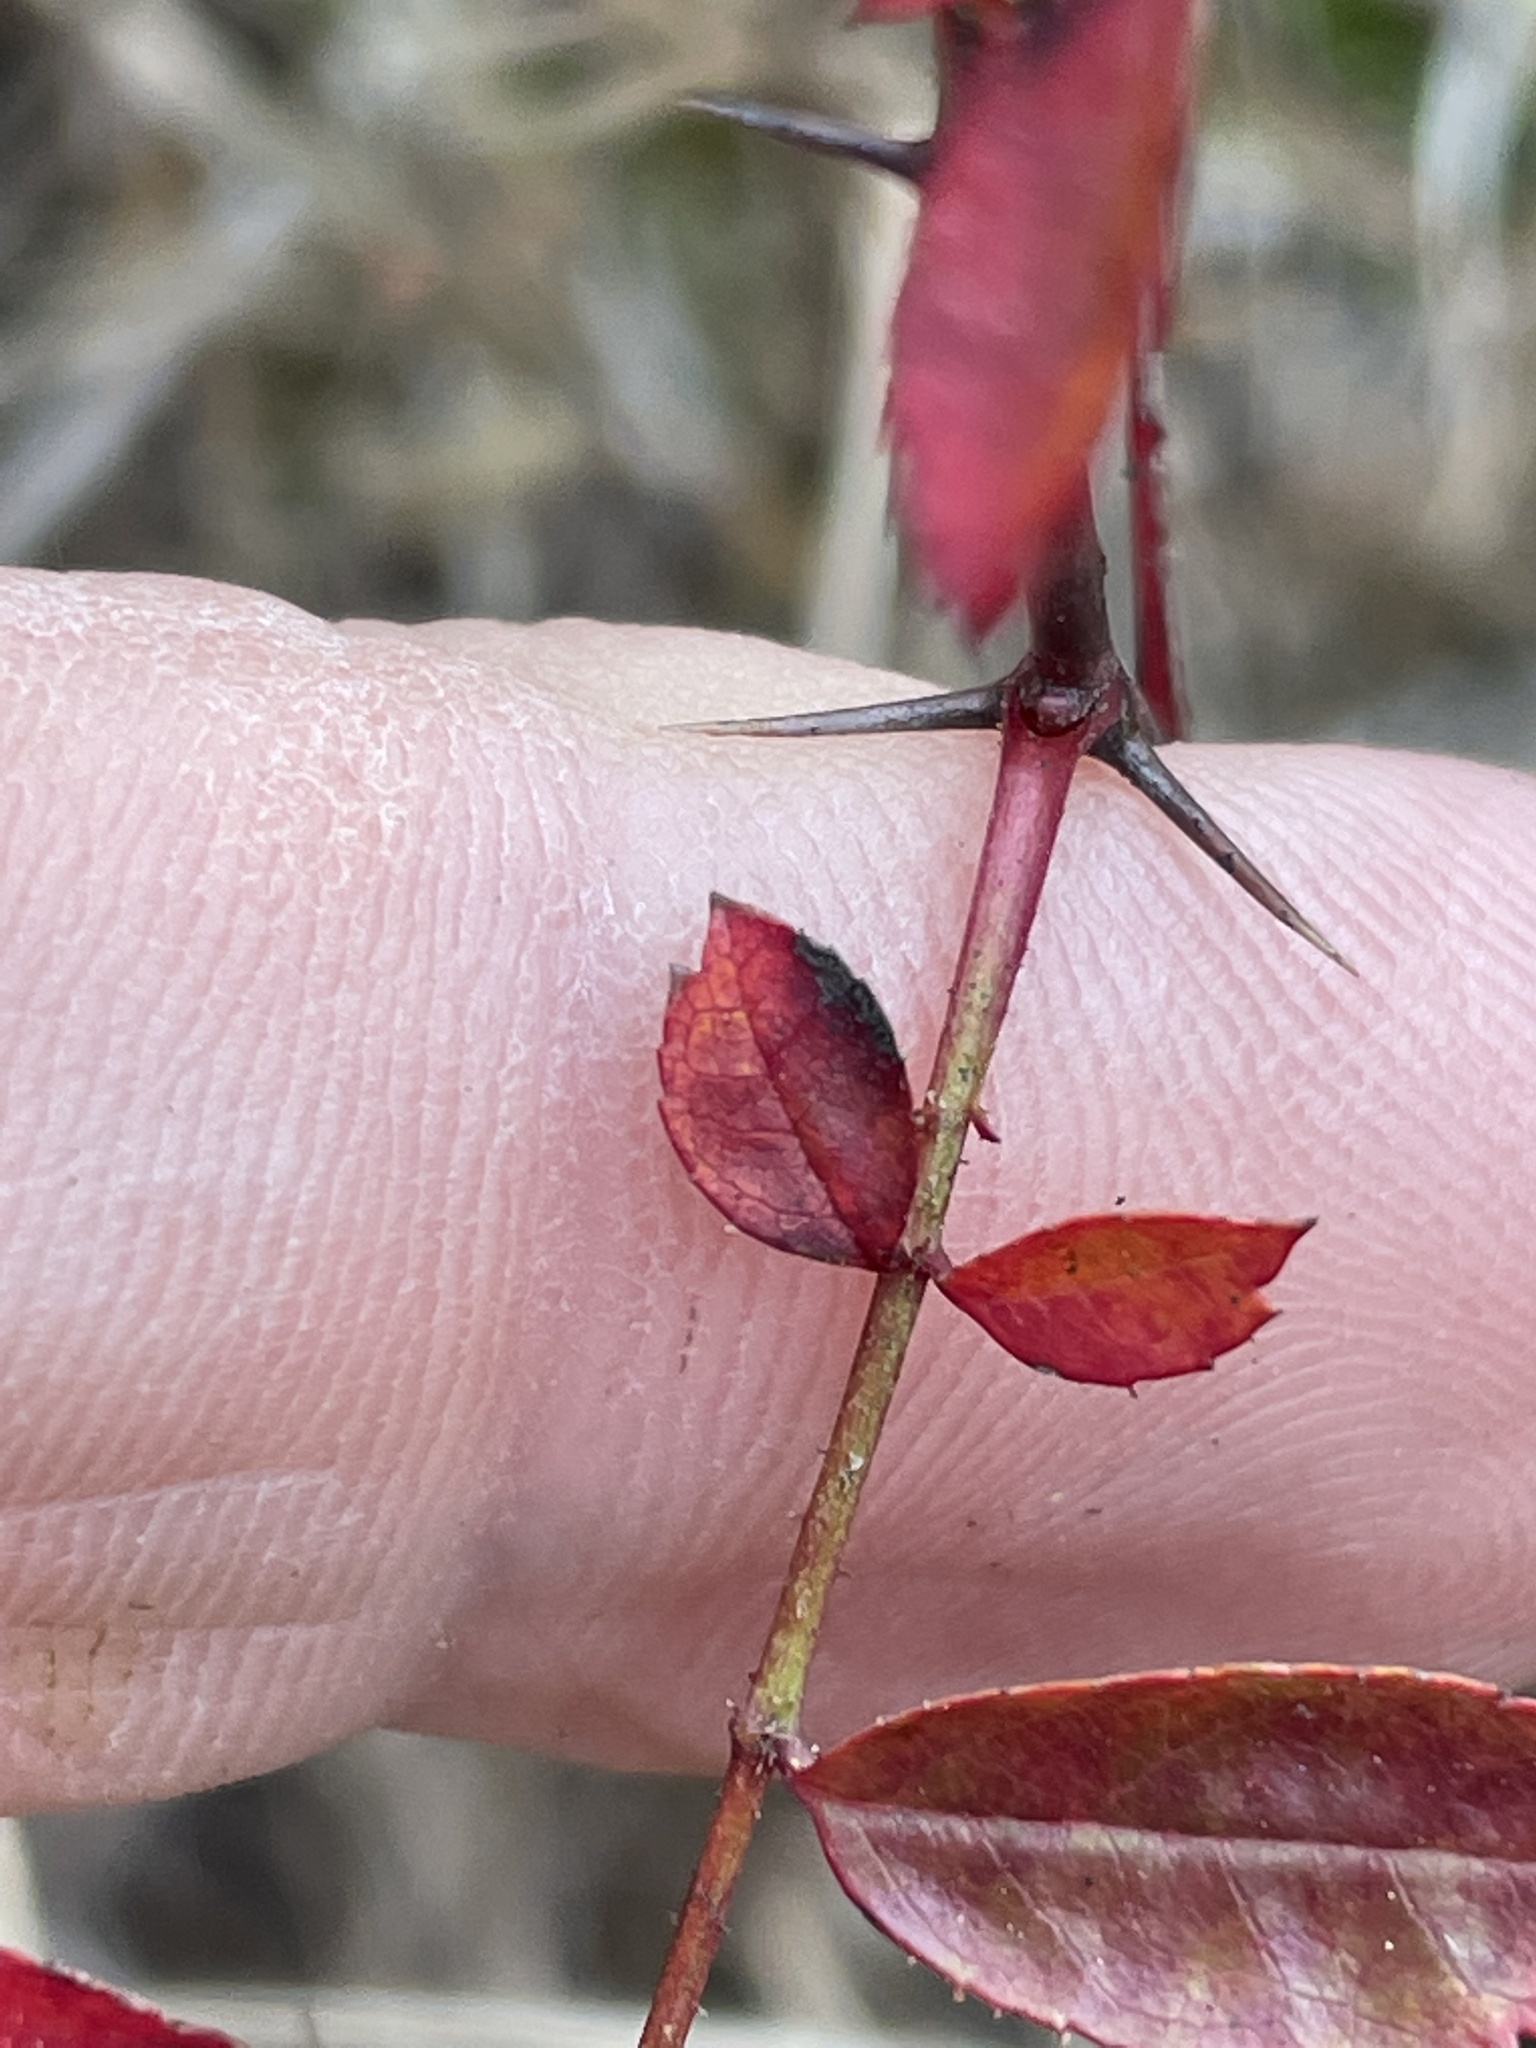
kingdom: Plantae
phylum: Tracheophyta
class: Magnoliopsida
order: Rosales
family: Rosaceae
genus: Rosa
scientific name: Rosa carolina
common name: Pasture rose
